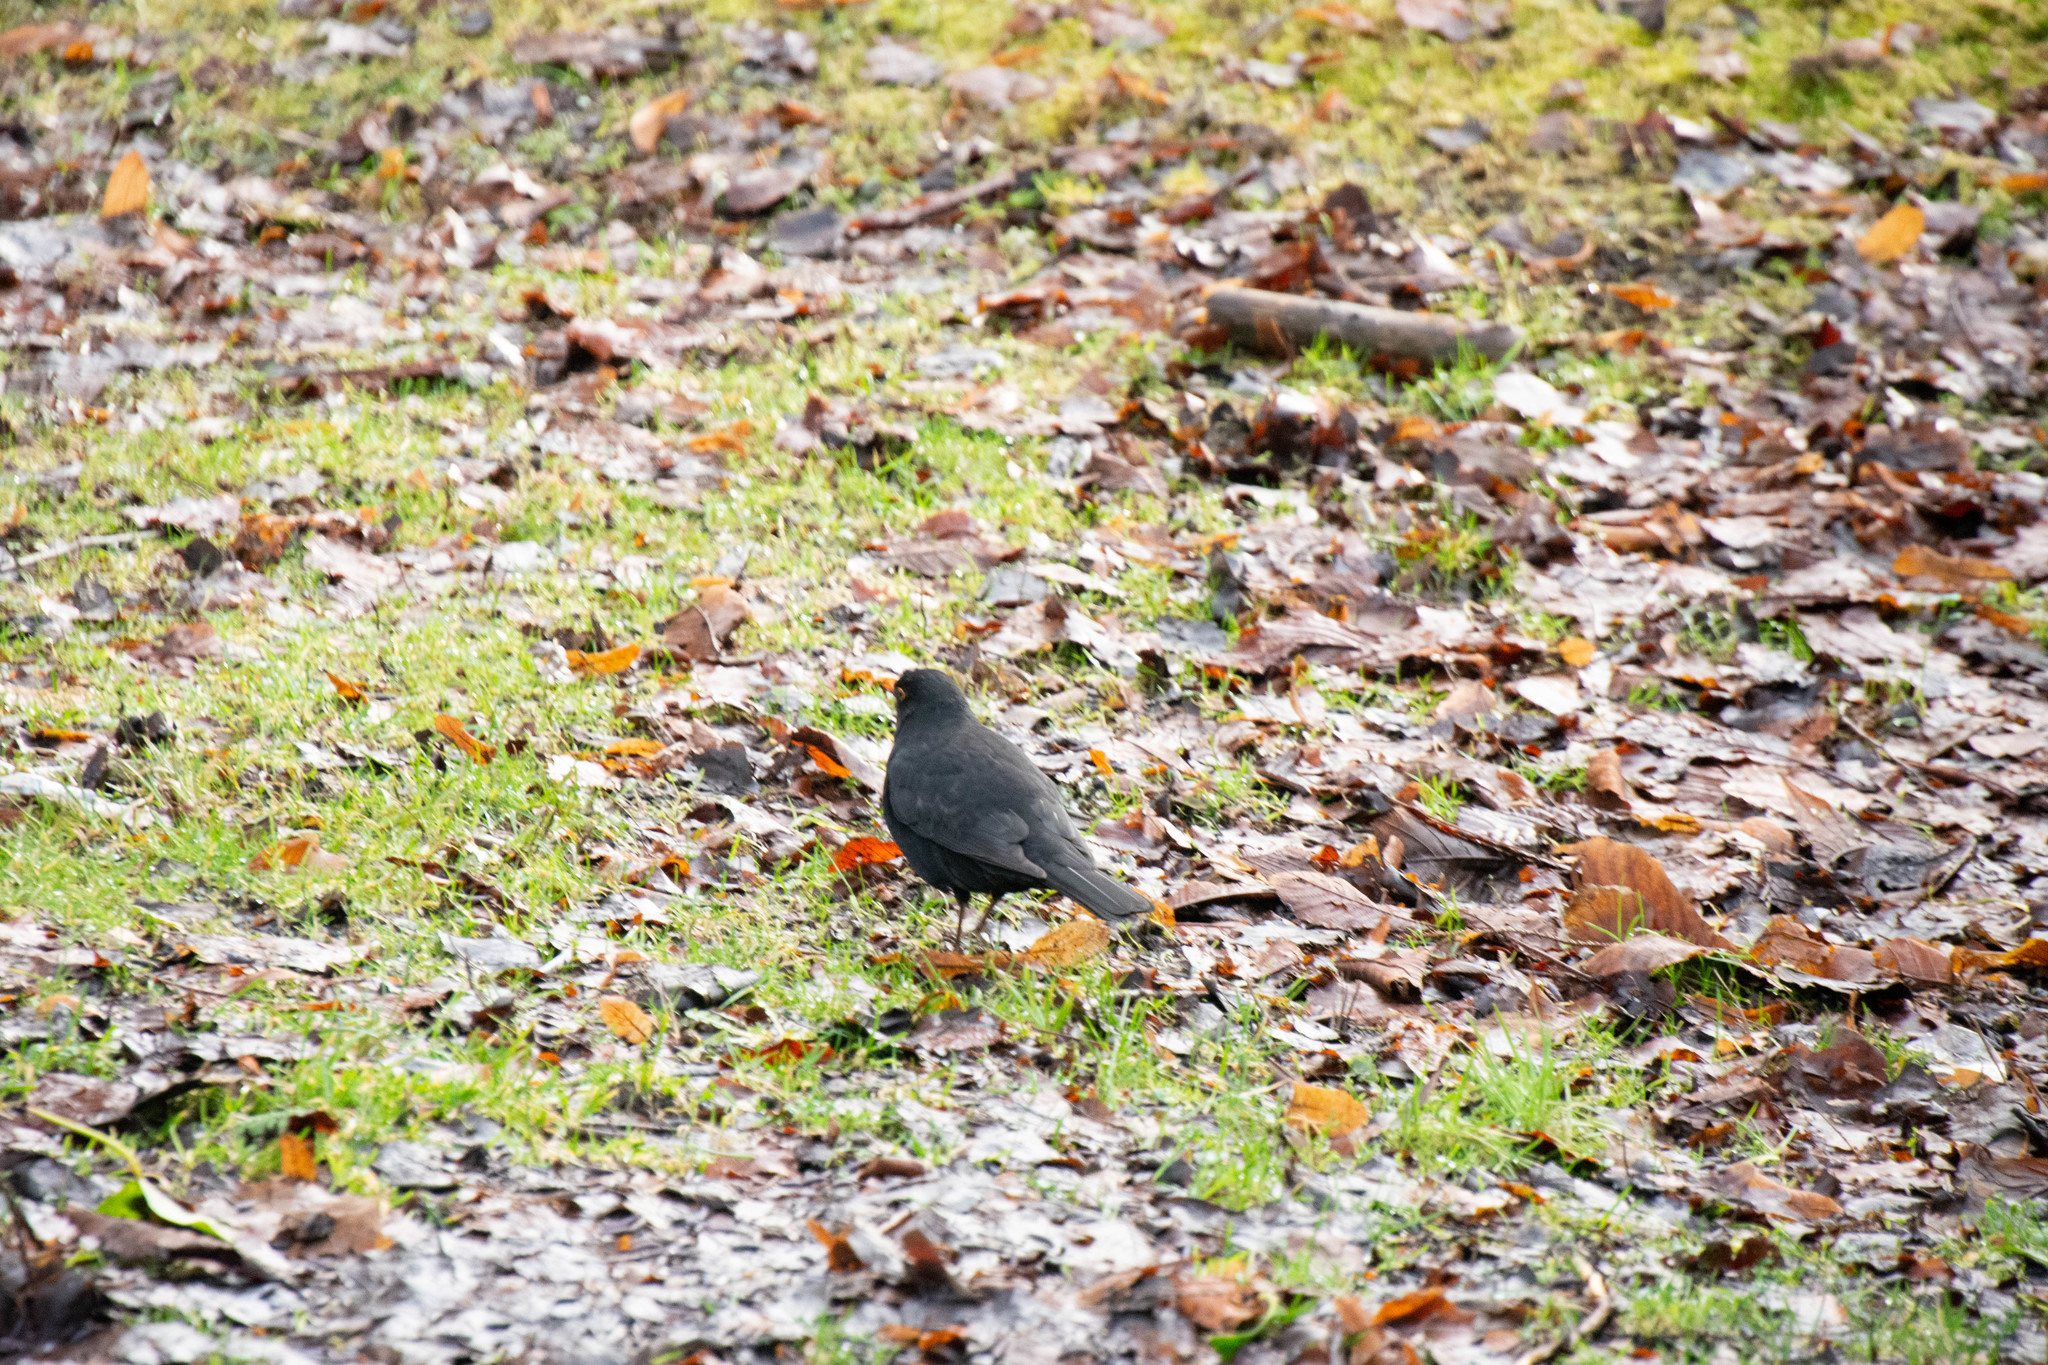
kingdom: Animalia
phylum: Chordata
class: Aves
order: Passeriformes
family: Turdidae
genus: Turdus
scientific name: Turdus merula
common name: Common blackbird
